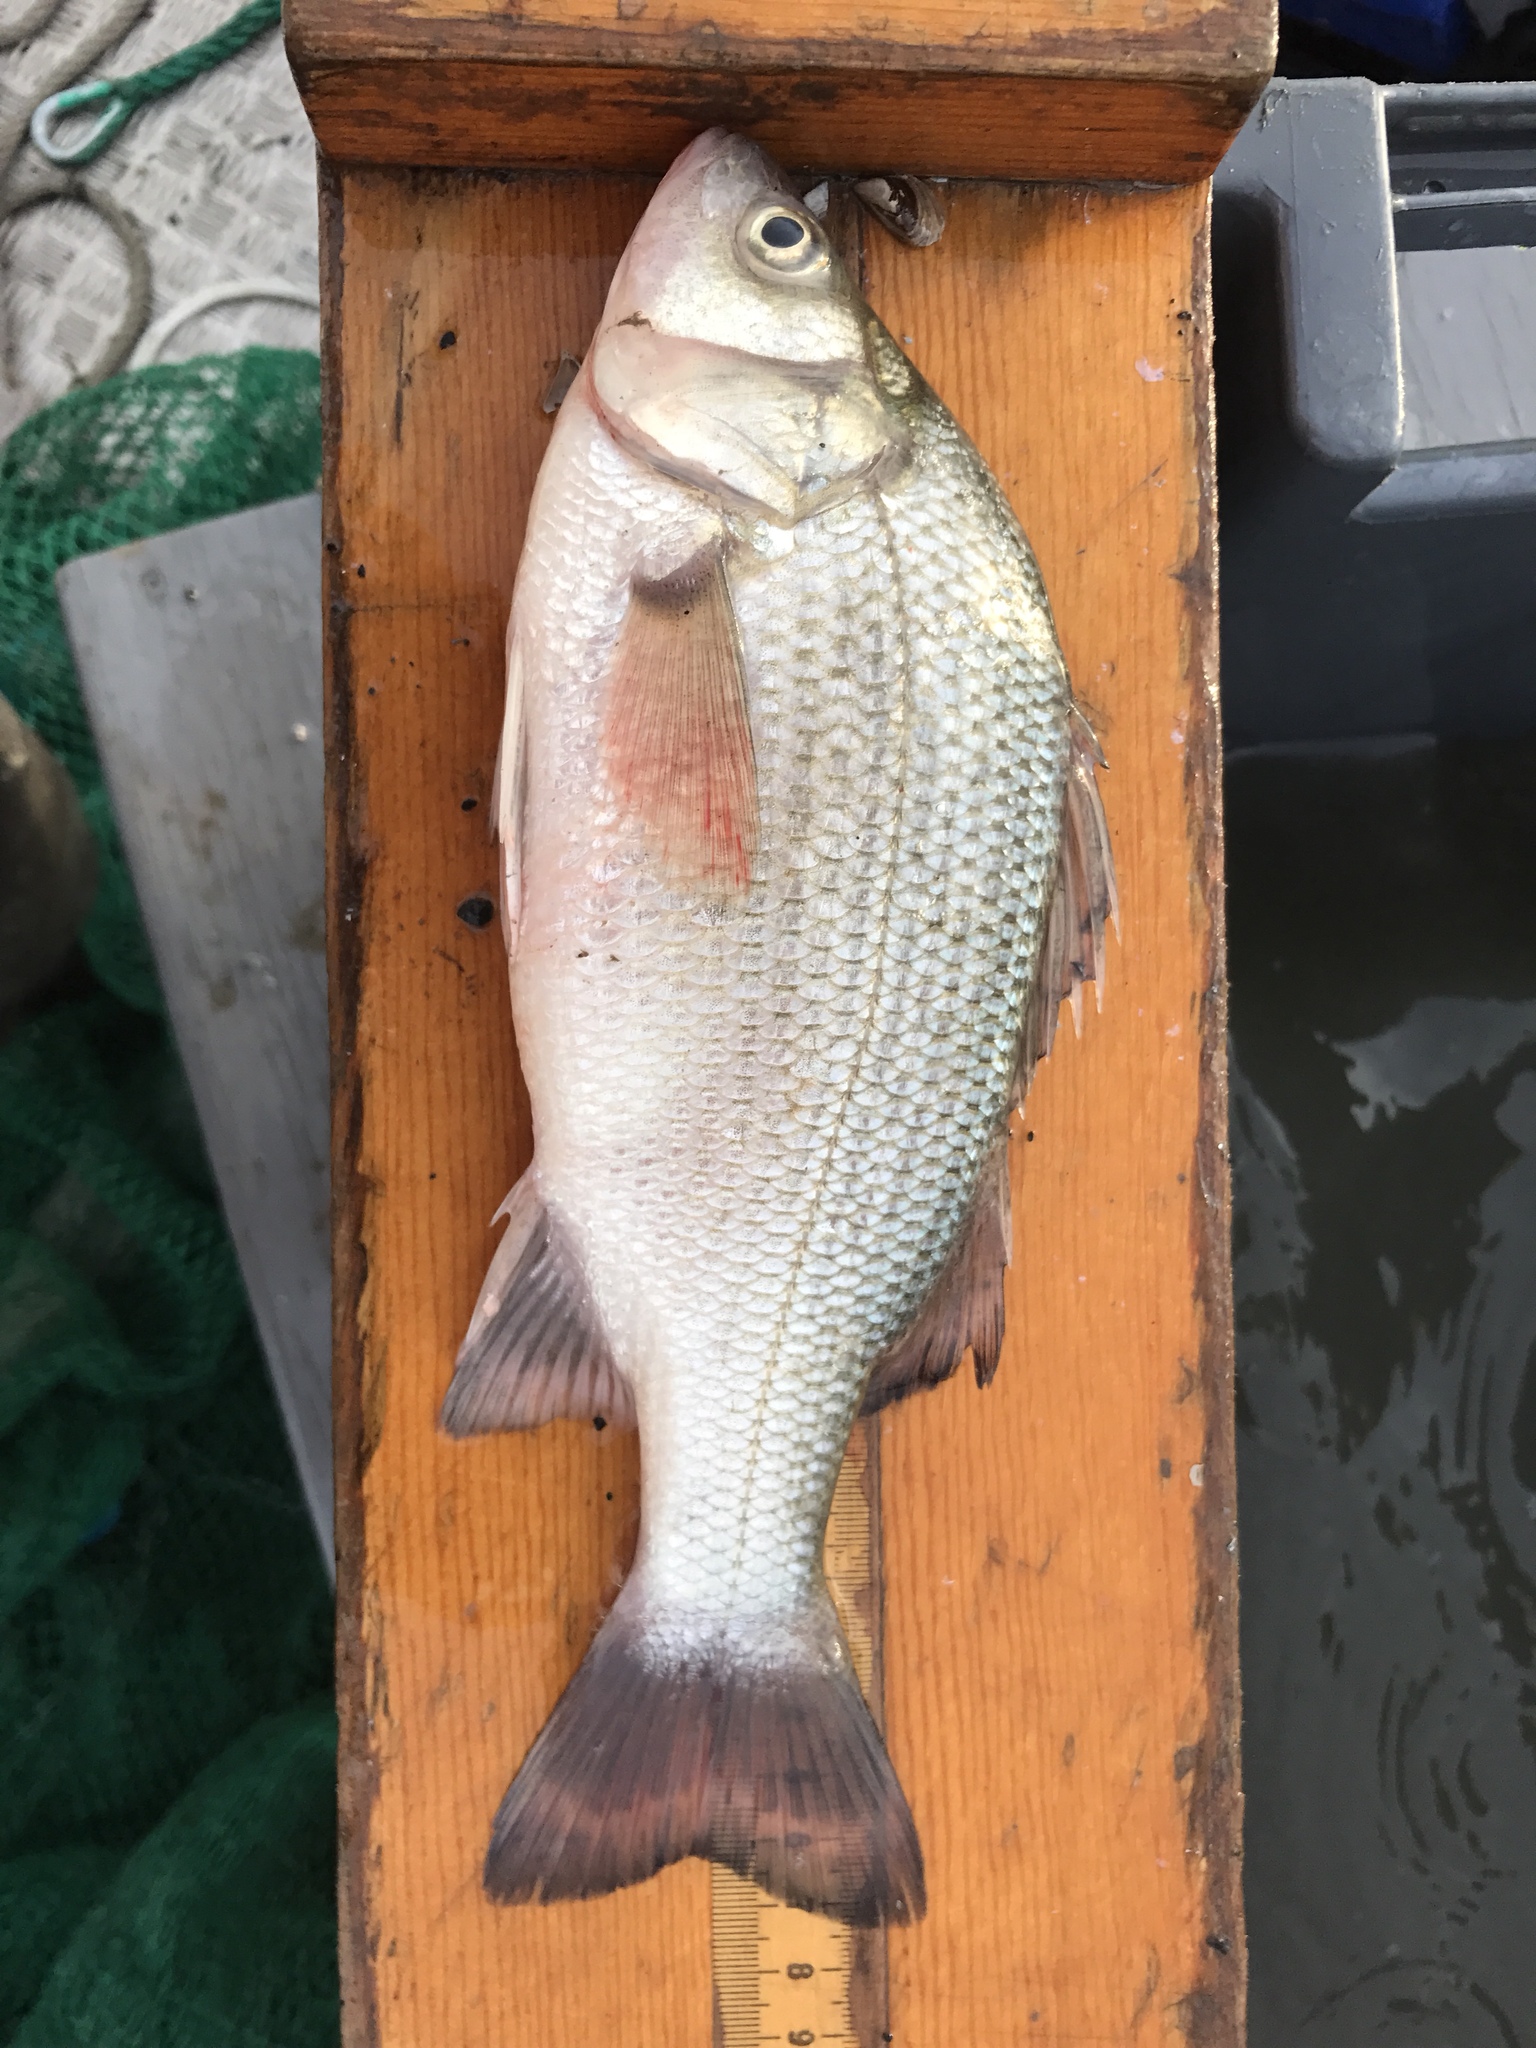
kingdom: Animalia
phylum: Chordata
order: Perciformes
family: Moronidae
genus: Morone
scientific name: Morone americana
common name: White perch
